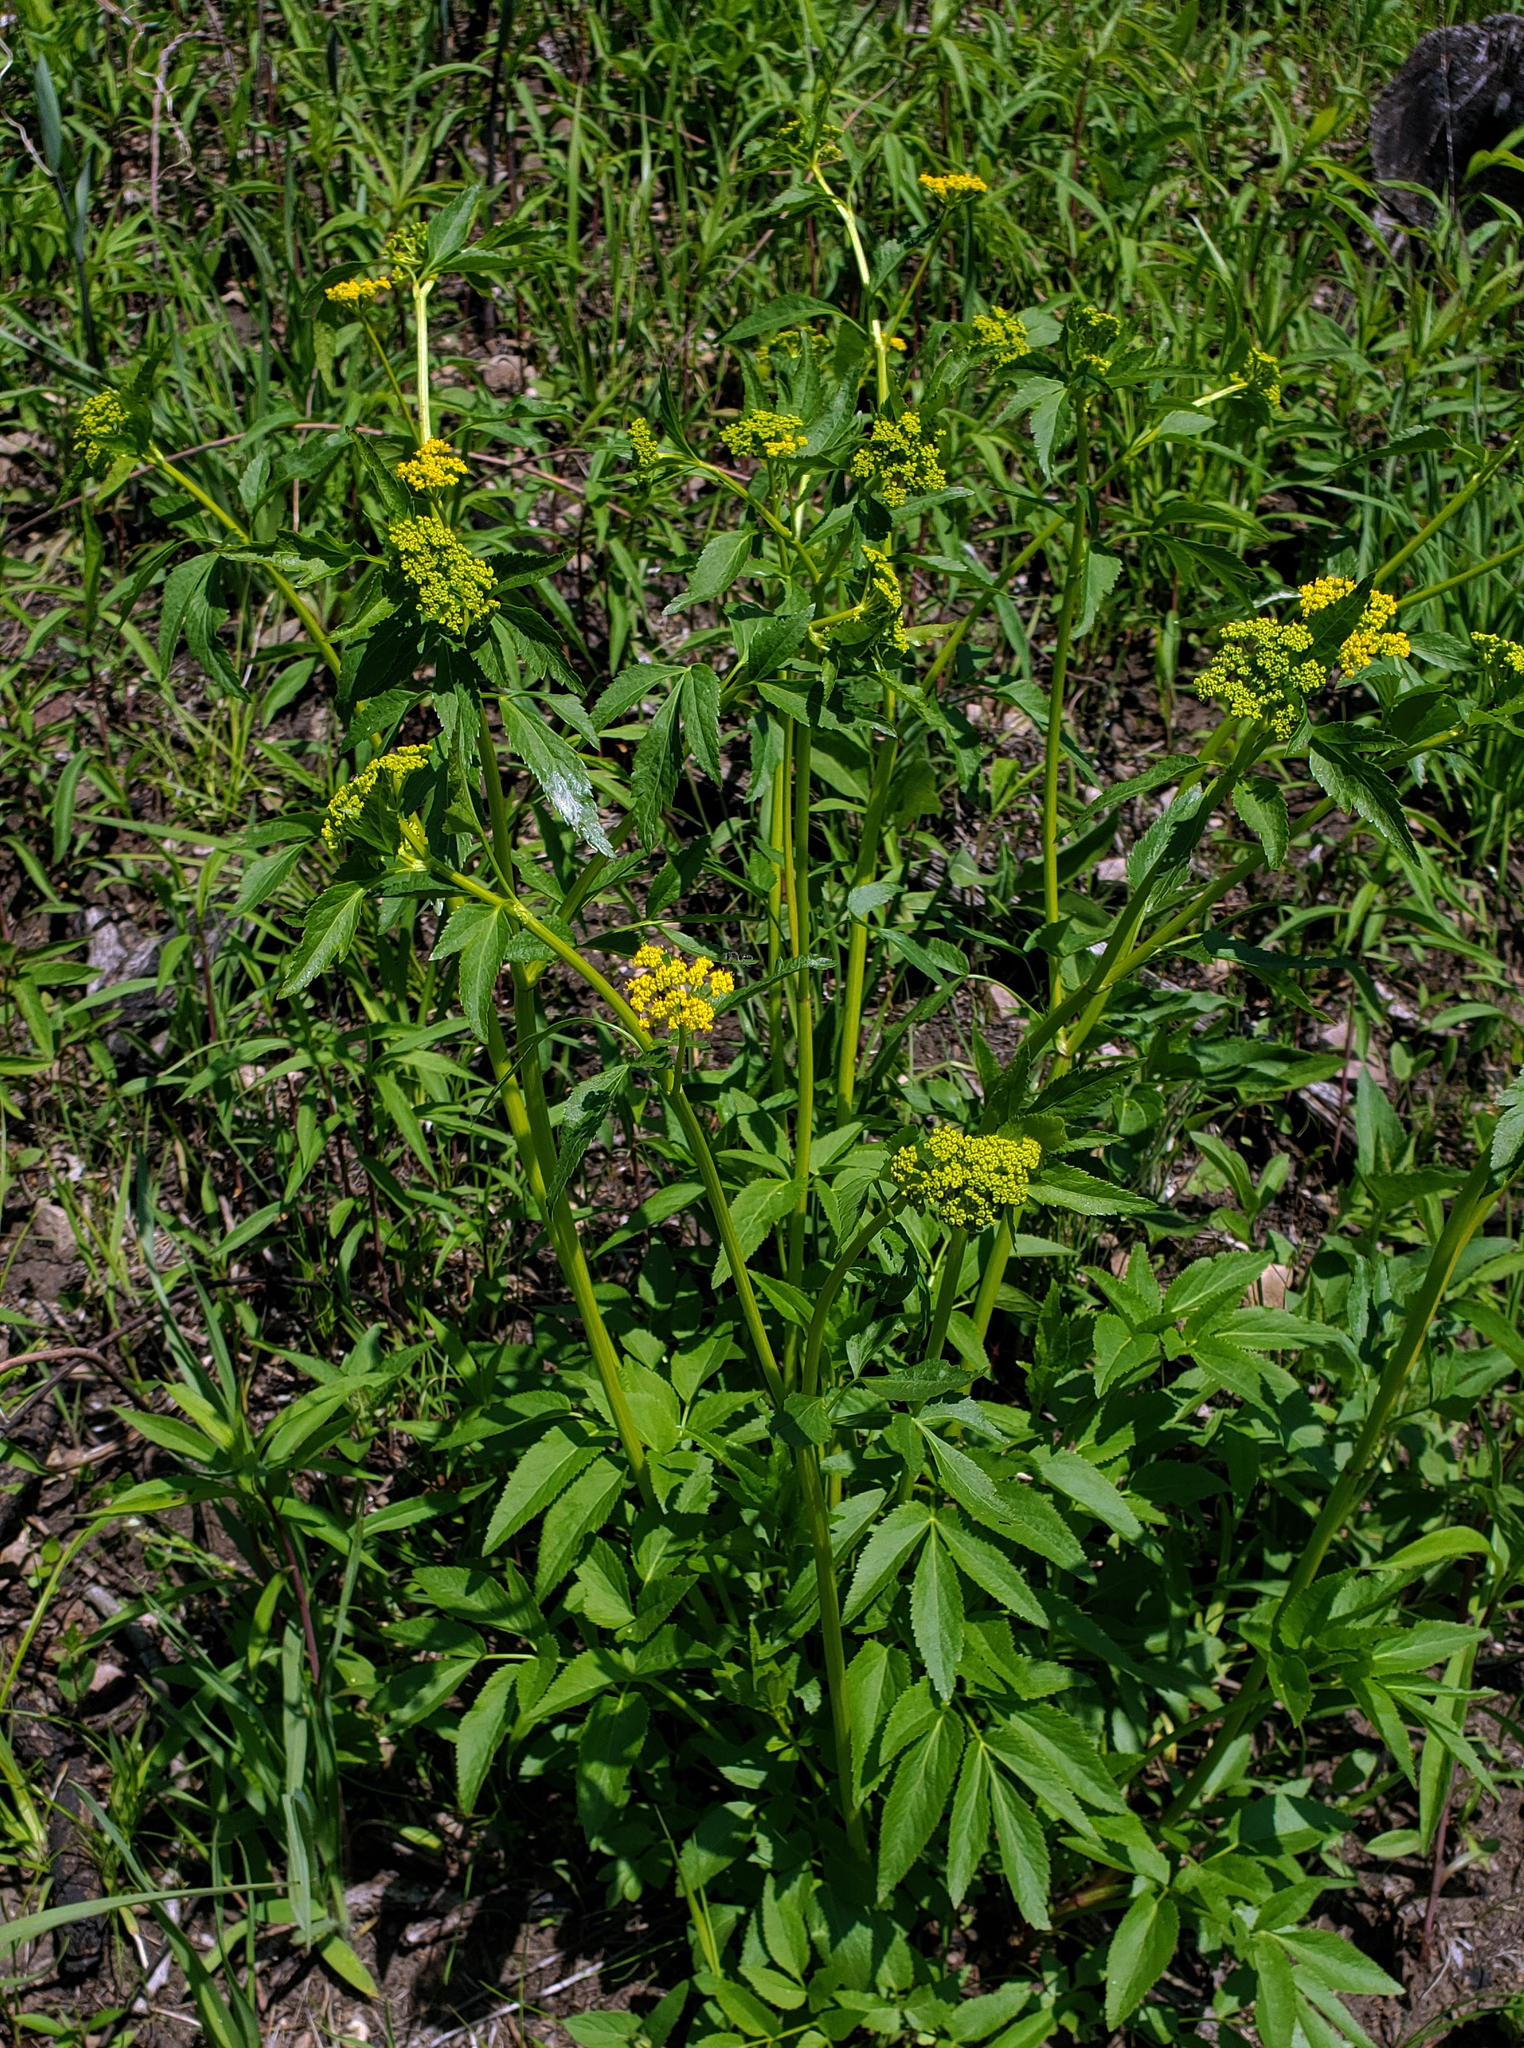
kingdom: Plantae
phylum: Tracheophyta
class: Magnoliopsida
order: Apiales
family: Apiaceae
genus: Zizia
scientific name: Zizia aurea
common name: Golden alexanders
